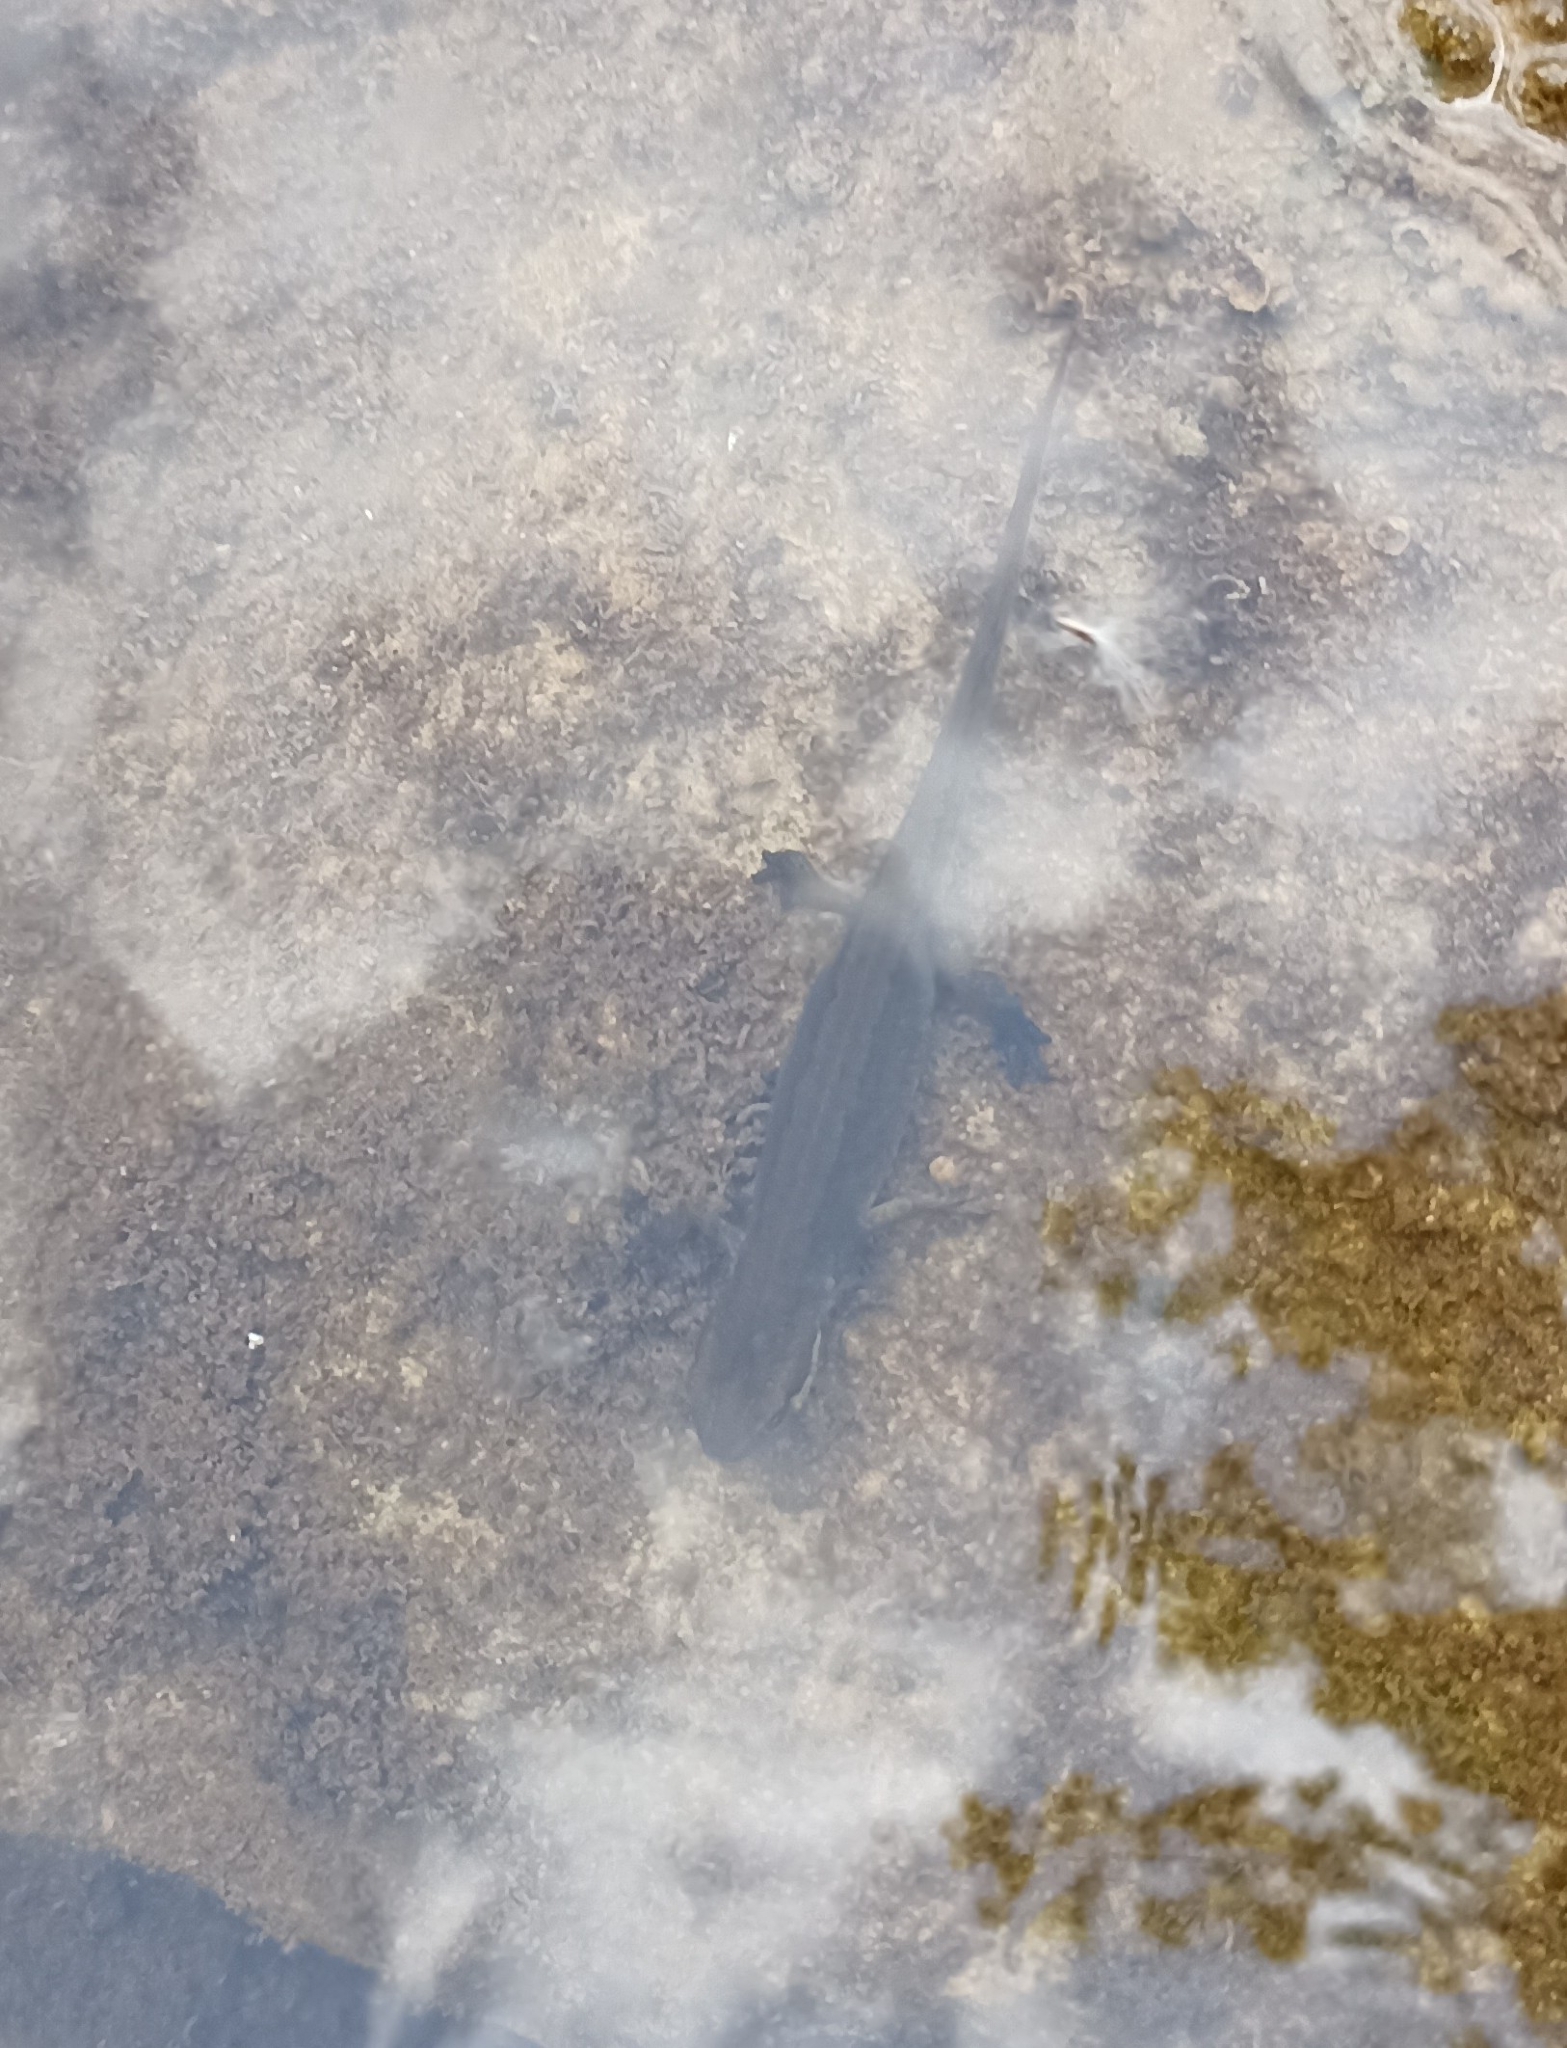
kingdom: Animalia
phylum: Chordata
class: Amphibia
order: Caudata
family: Salamandridae
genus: Lissotriton
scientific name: Lissotriton helveticus
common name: Palmate newt
